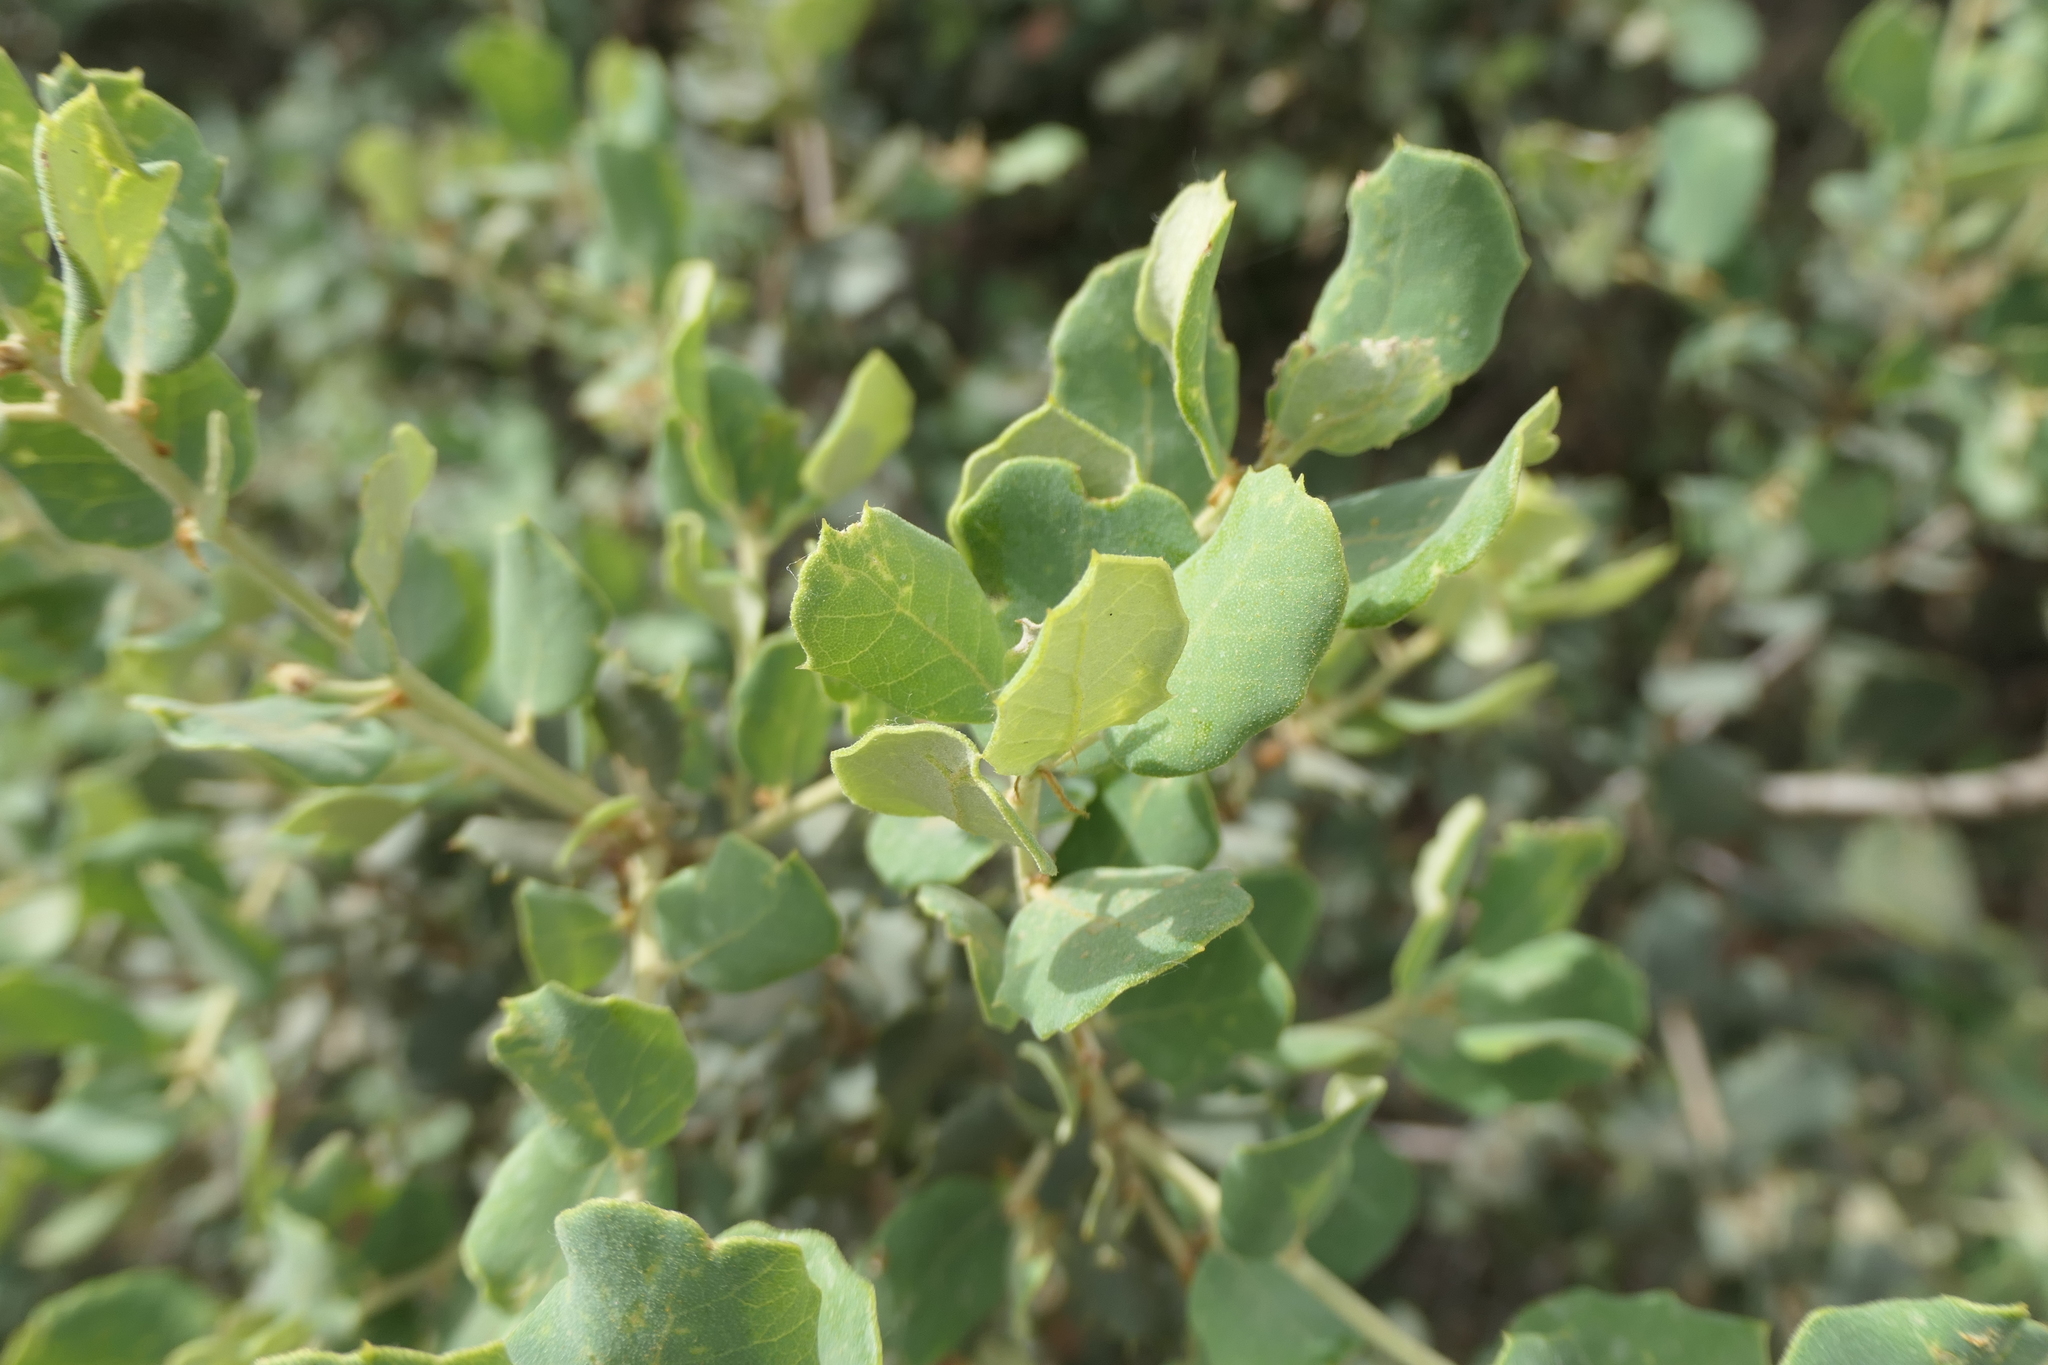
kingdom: Plantae
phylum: Tracheophyta
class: Magnoliopsida
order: Fagales
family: Fagaceae
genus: Quercus
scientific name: Quercus rotundifolia
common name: Holm oak
